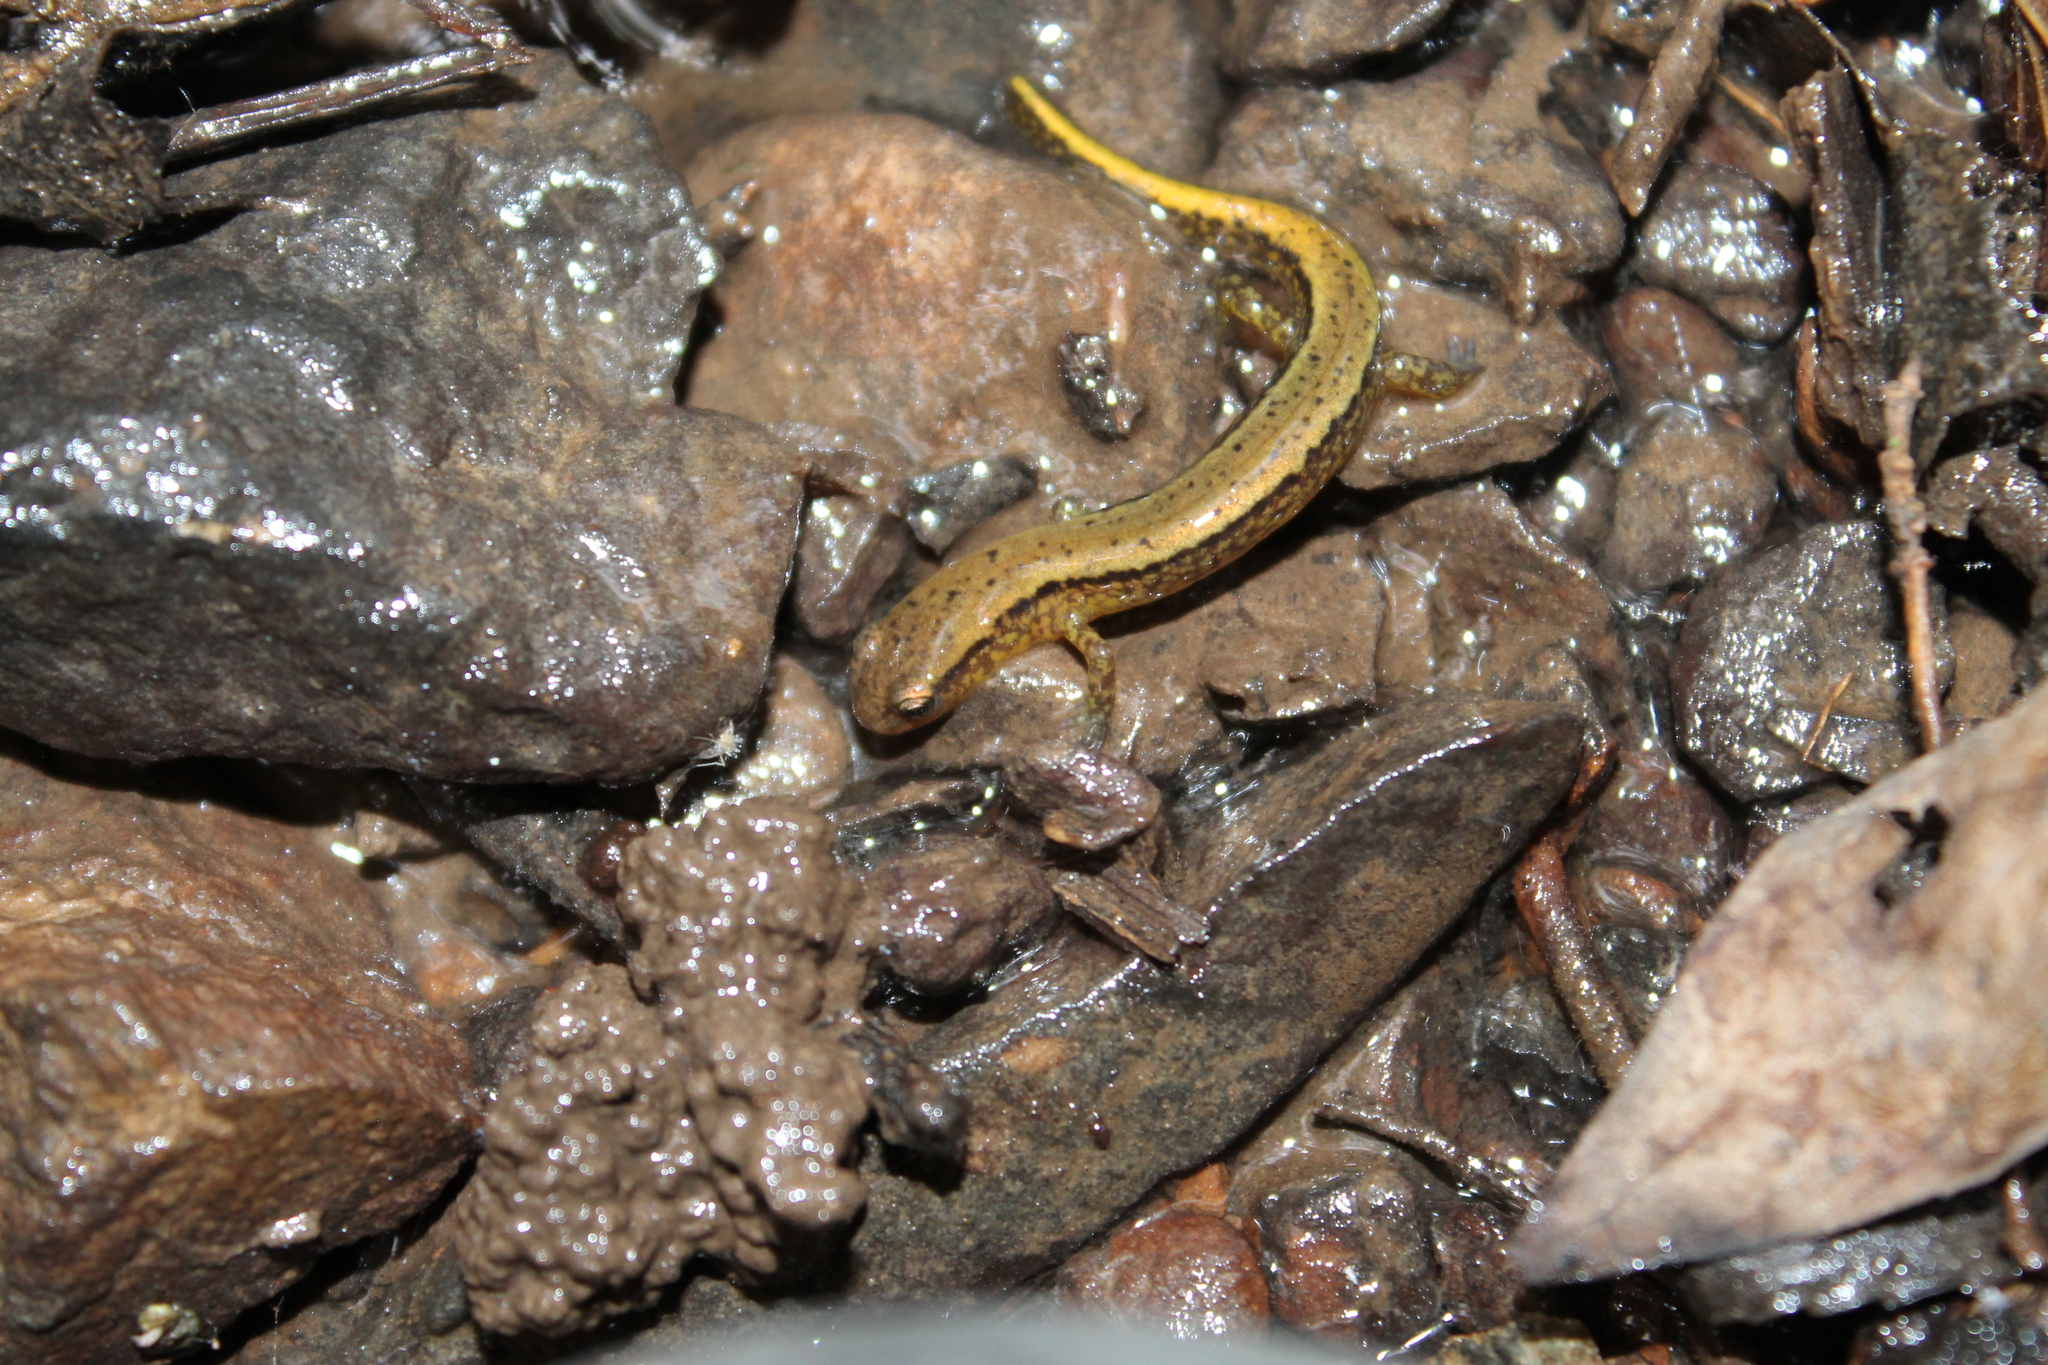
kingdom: Animalia
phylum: Chordata
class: Amphibia
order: Caudata
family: Plethodontidae
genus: Eurycea
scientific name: Eurycea cirrigera
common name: Southern two-lined salamander
